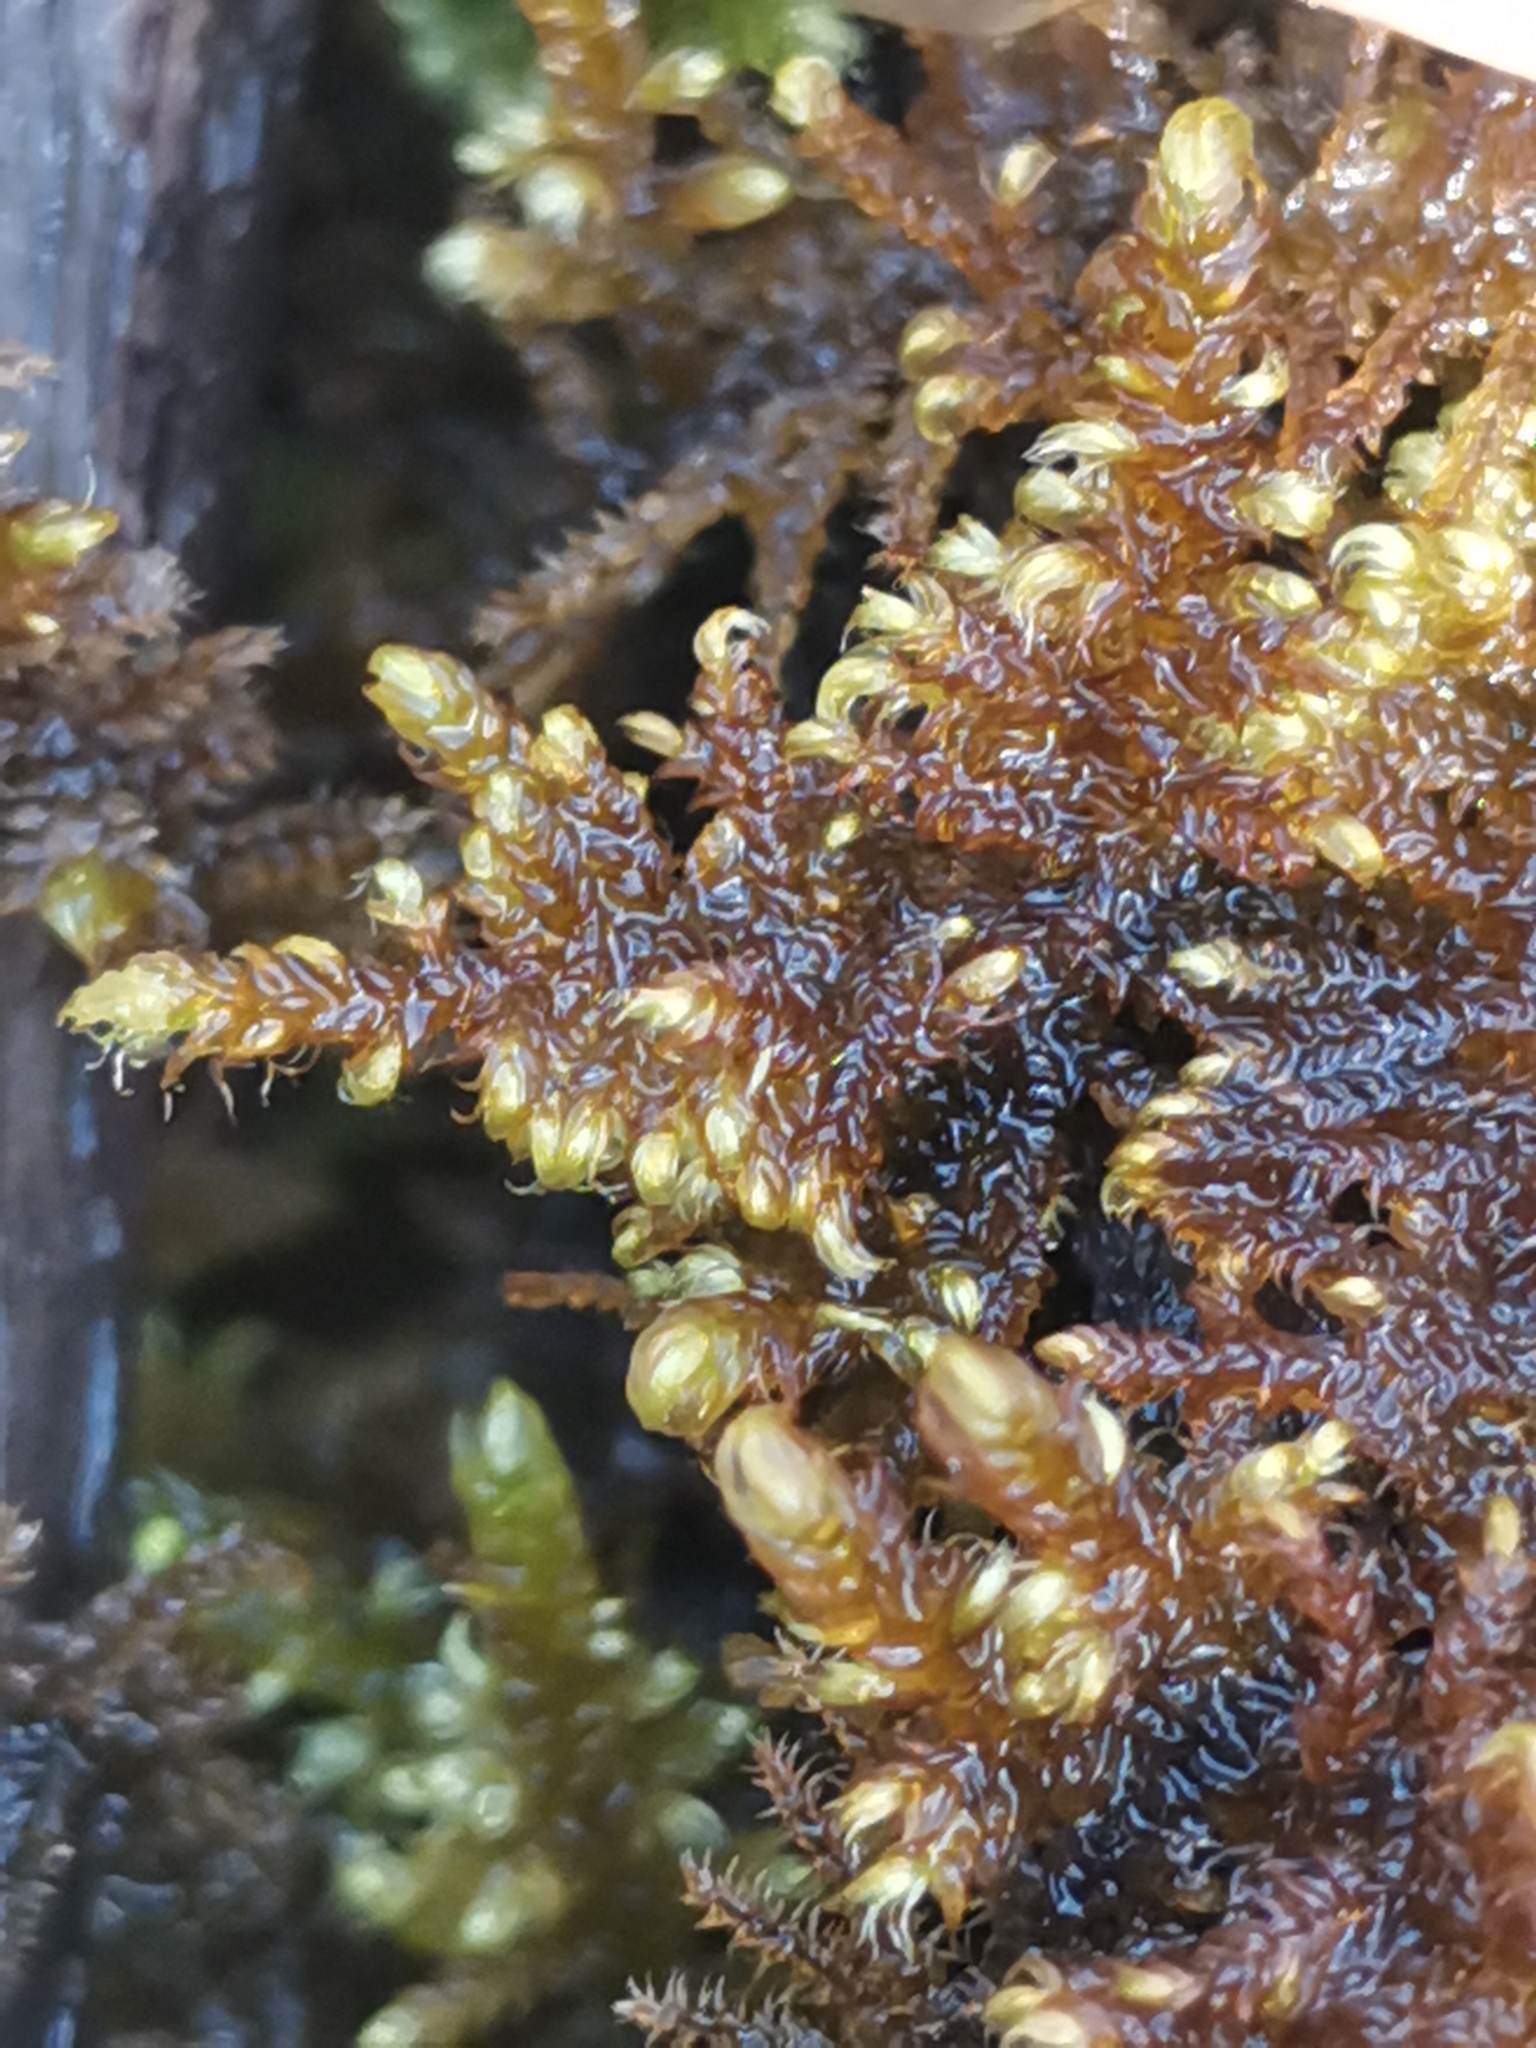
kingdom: Plantae
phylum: Bryophyta
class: Bryopsida
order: Hypnales
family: Myuriaceae
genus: Ctenidium
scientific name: Ctenidium molluscum
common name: Chalk comb-moss
